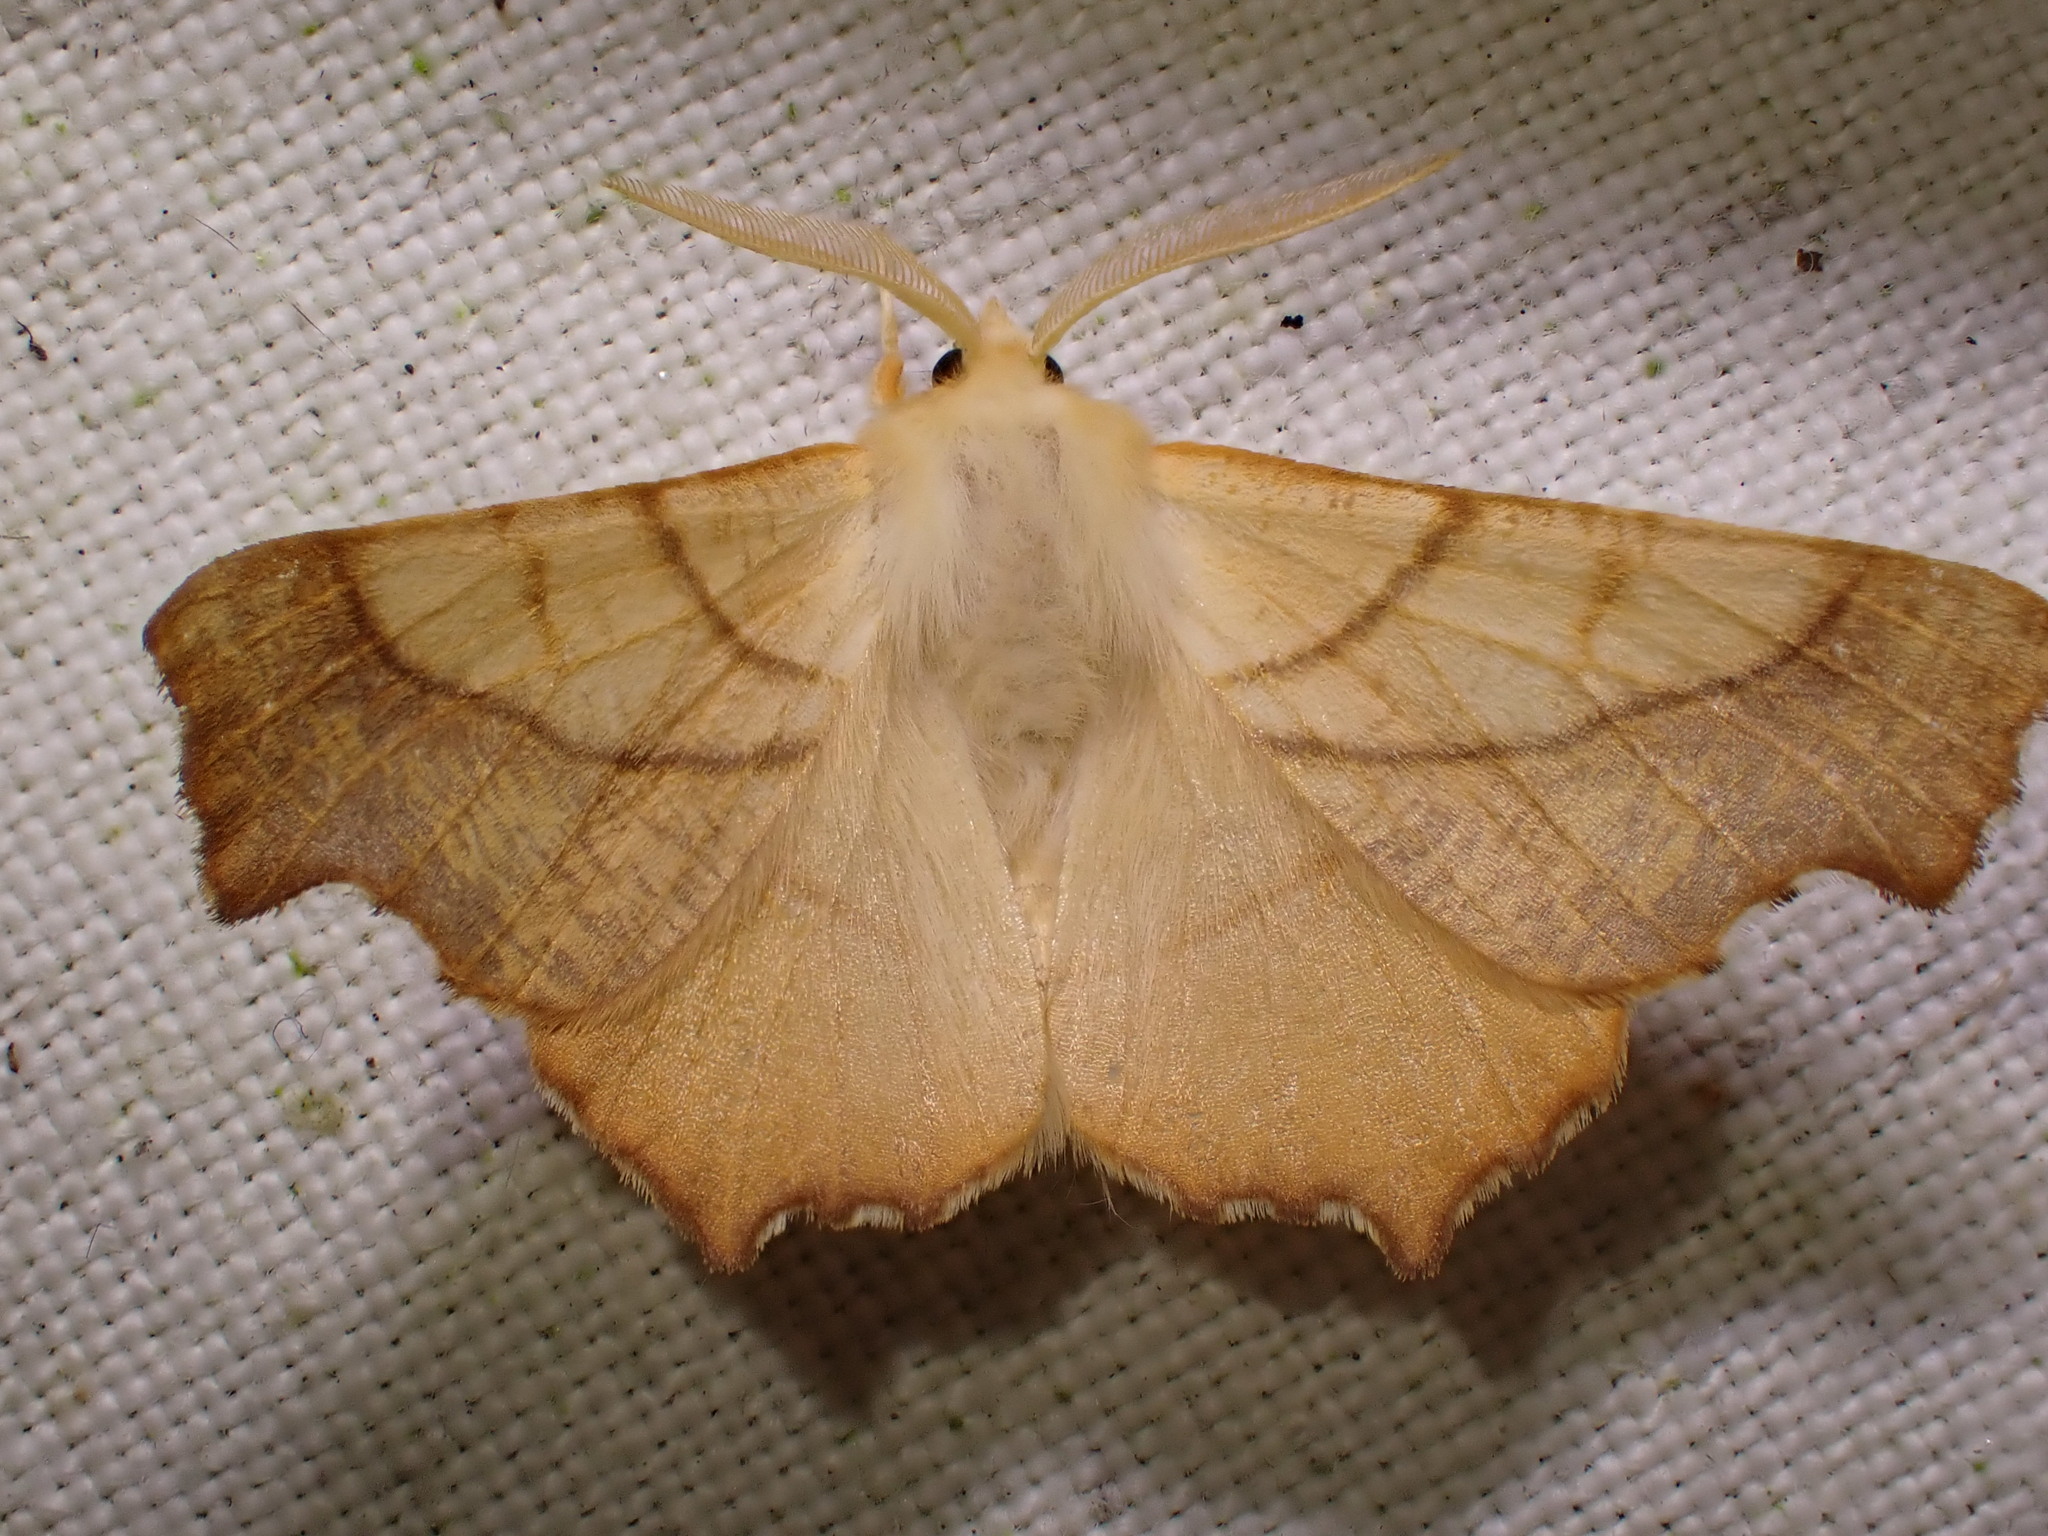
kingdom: Animalia
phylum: Arthropoda
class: Insecta
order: Lepidoptera
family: Geometridae
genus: Ennomos
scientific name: Ennomos fuscantaria
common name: Dusky thorn
